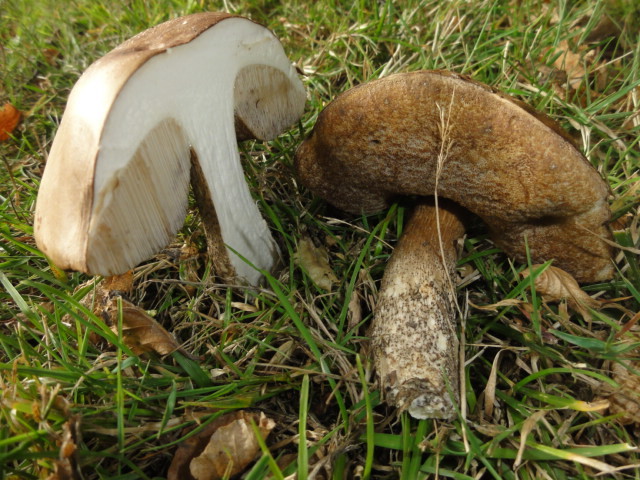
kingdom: Fungi
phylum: Basidiomycota
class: Agaricomycetes
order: Boletales
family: Boletaceae
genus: Leccinum
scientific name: Leccinum scabrum
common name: Blushing bolete
